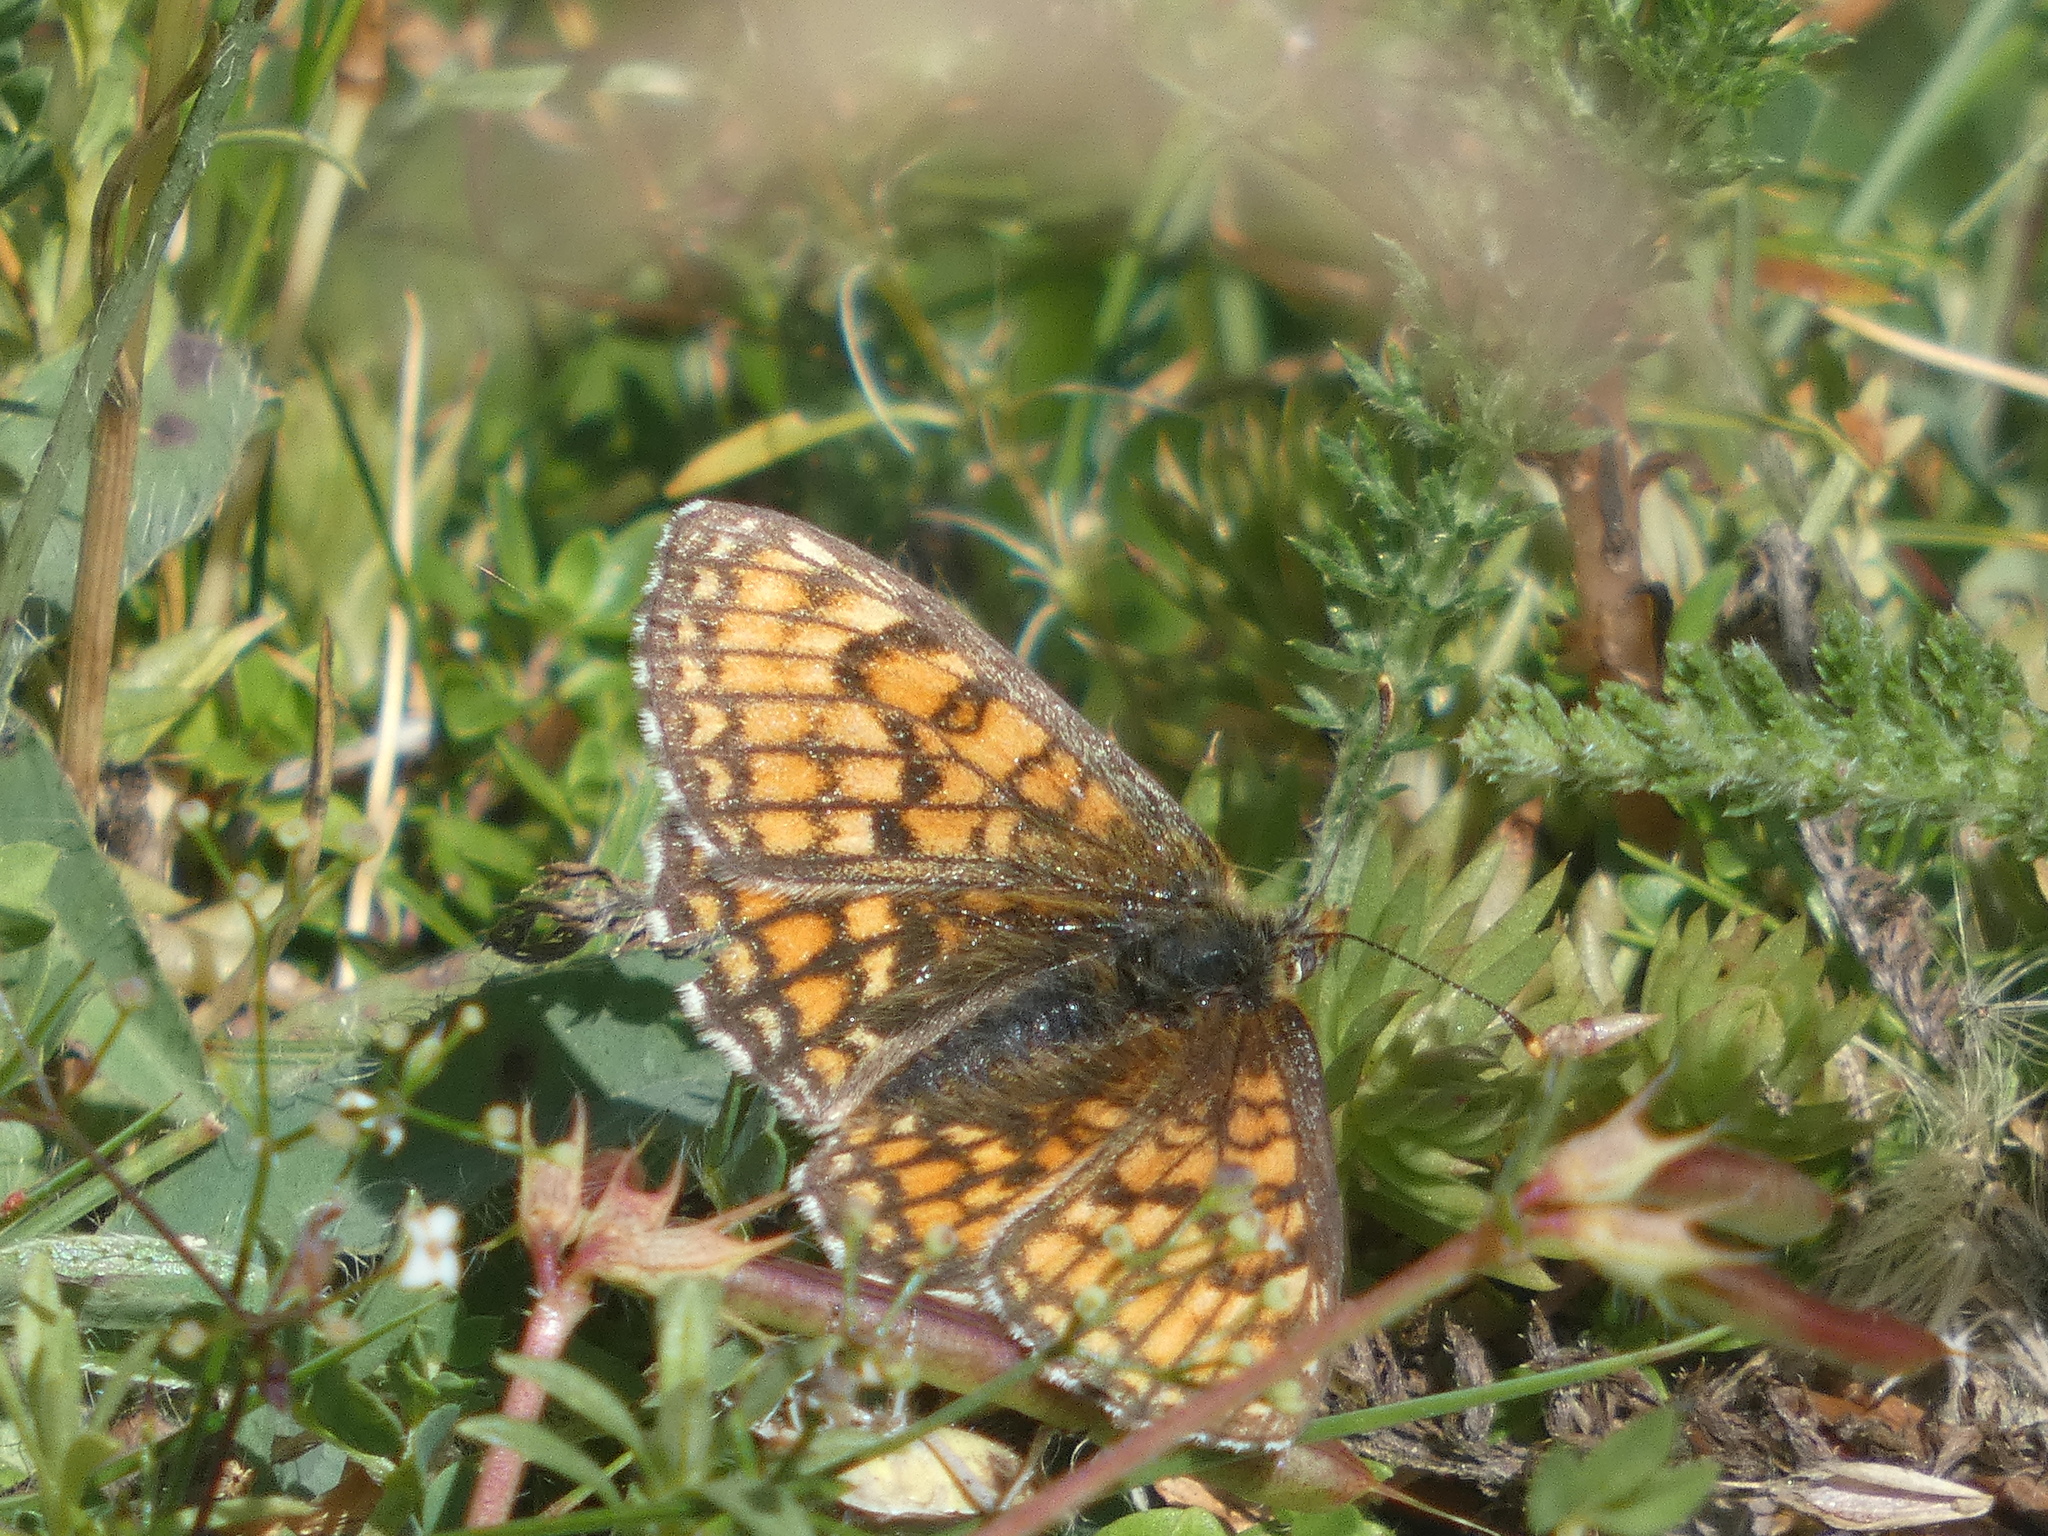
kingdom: Animalia
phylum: Arthropoda
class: Insecta
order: Lepidoptera
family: Nymphalidae
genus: Mellicta
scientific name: Mellicta parthenoides
